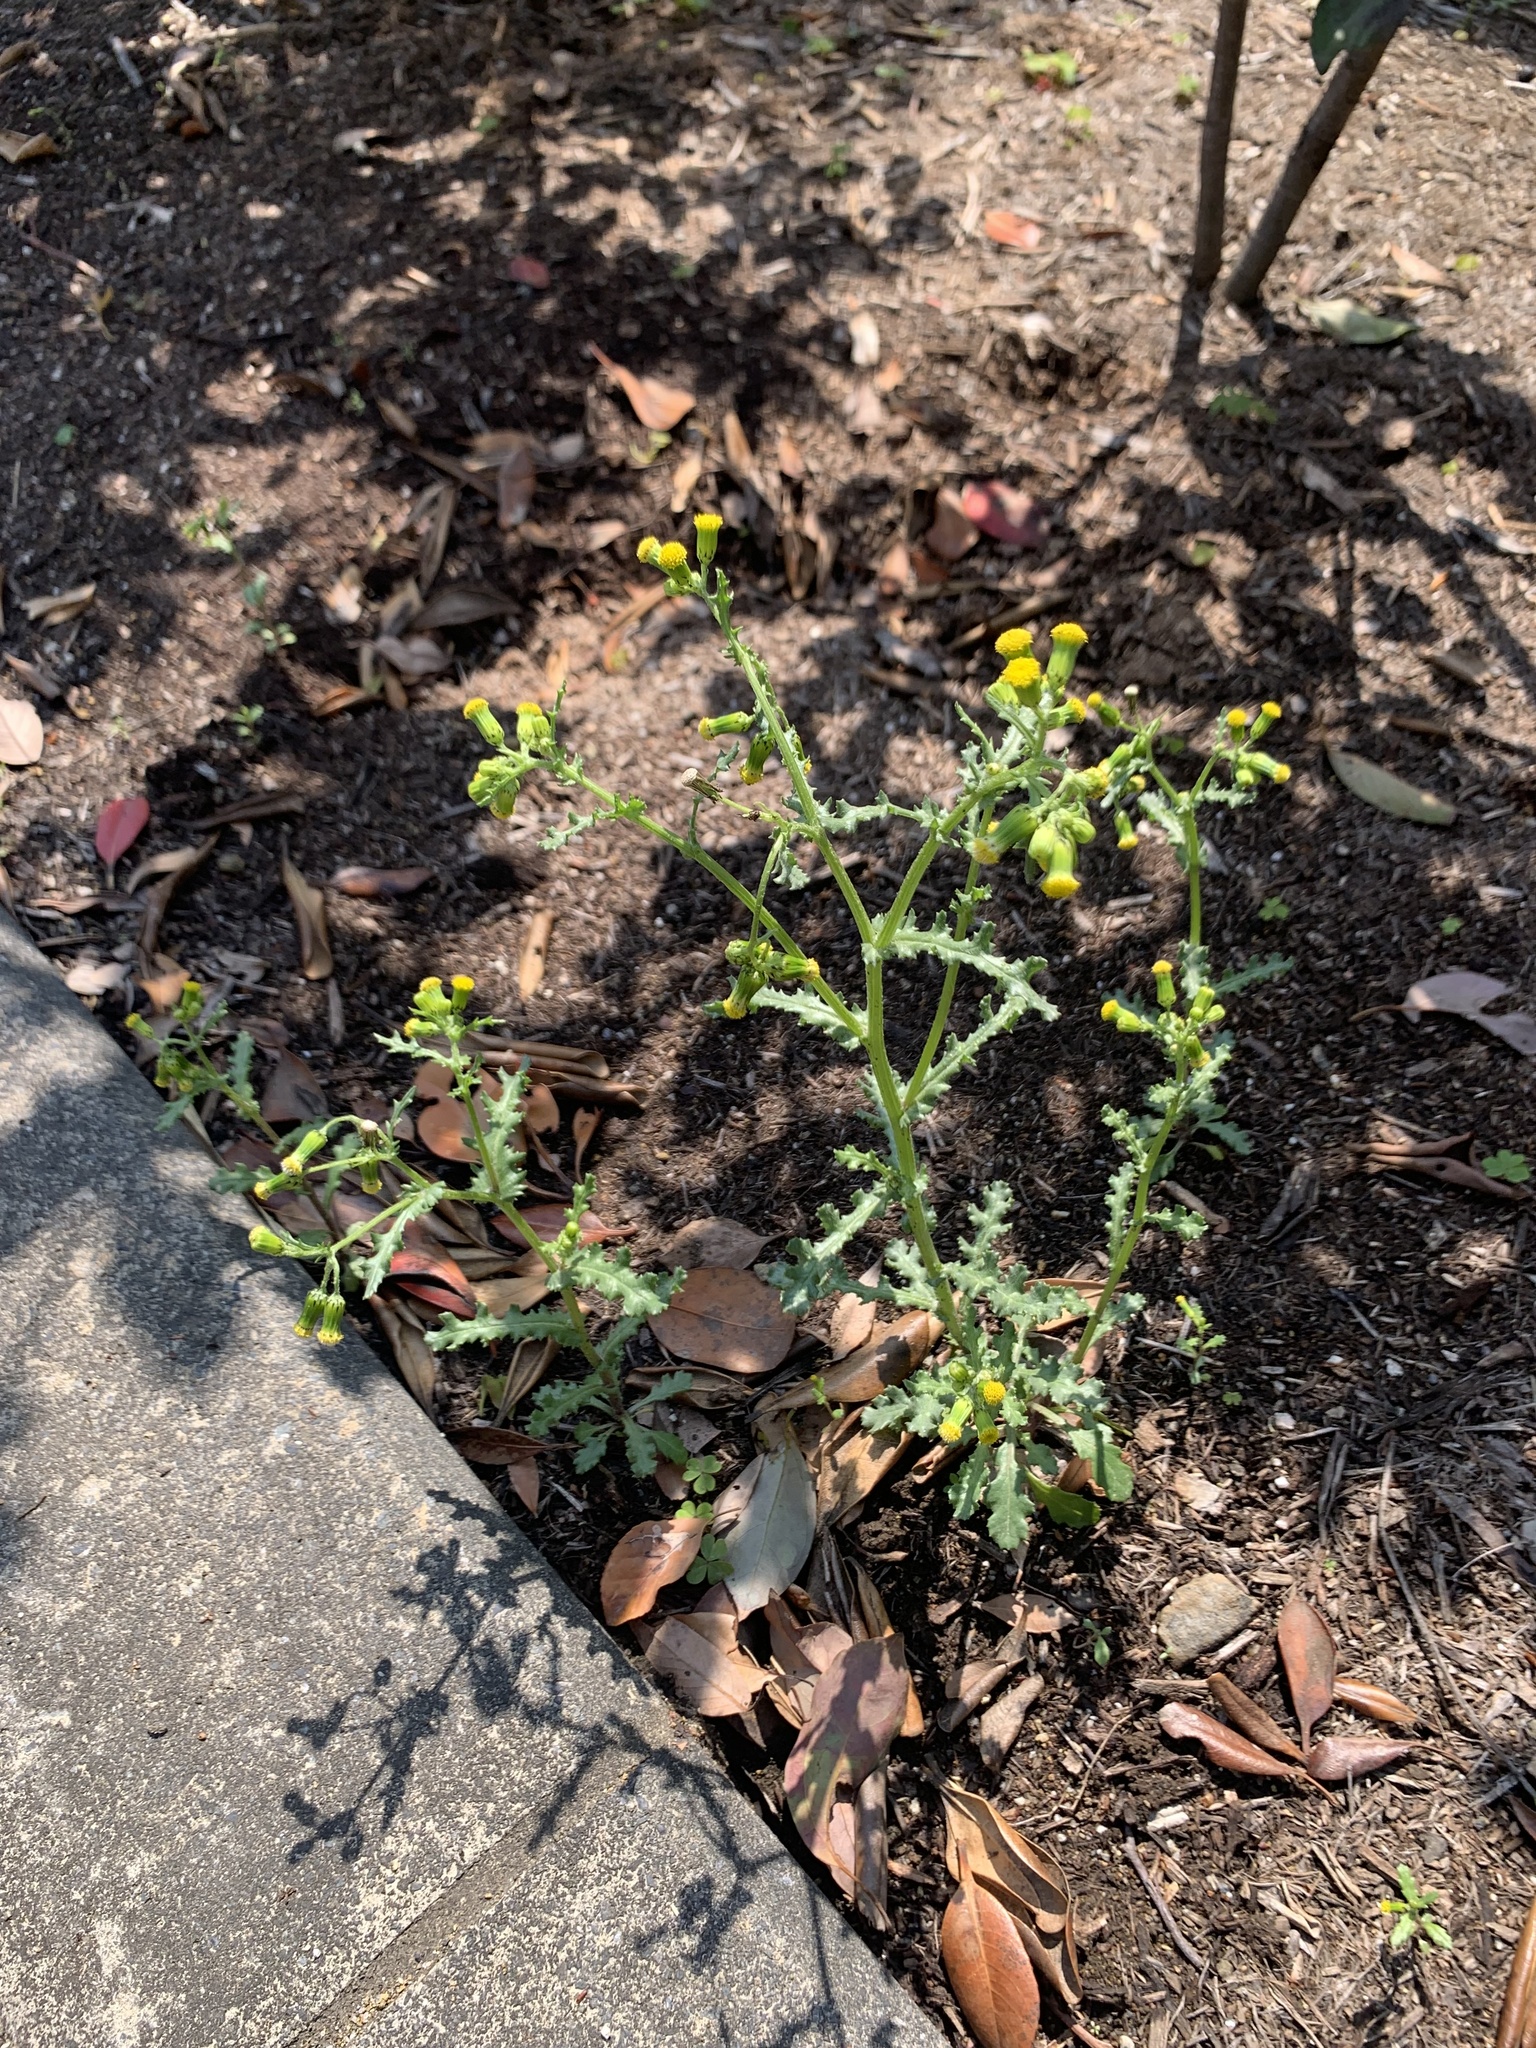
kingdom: Plantae
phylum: Tracheophyta
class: Magnoliopsida
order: Asterales
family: Asteraceae
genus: Senecio
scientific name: Senecio vulgaris
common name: Old-man-in-the-spring
